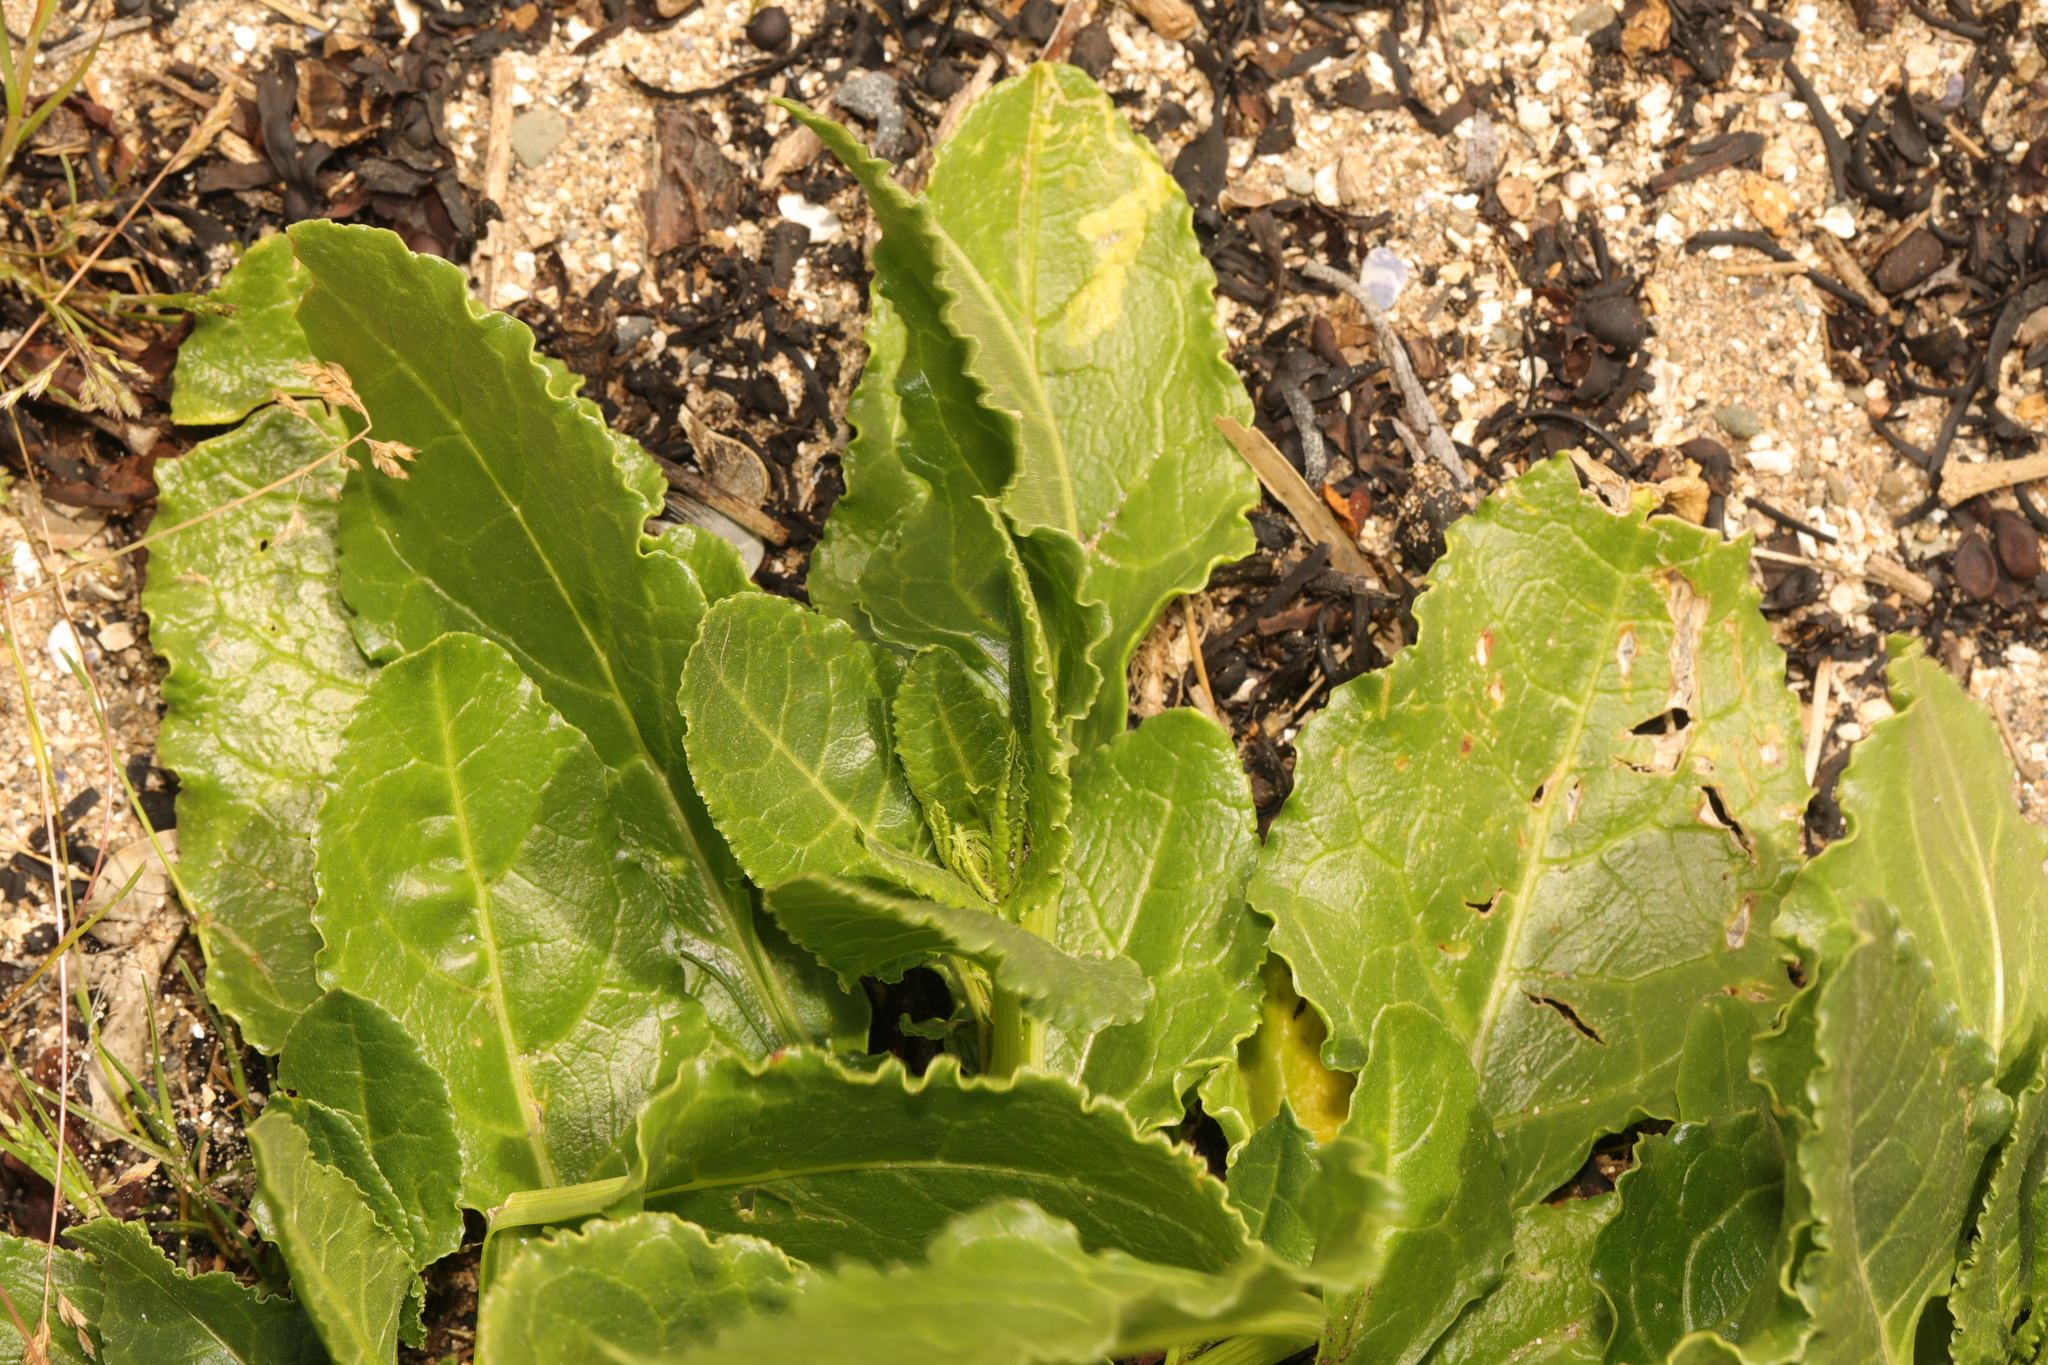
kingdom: Plantae
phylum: Tracheophyta
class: Magnoliopsida
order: Caryophyllales
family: Amaranthaceae
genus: Beta
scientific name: Beta vulgaris
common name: Beet
